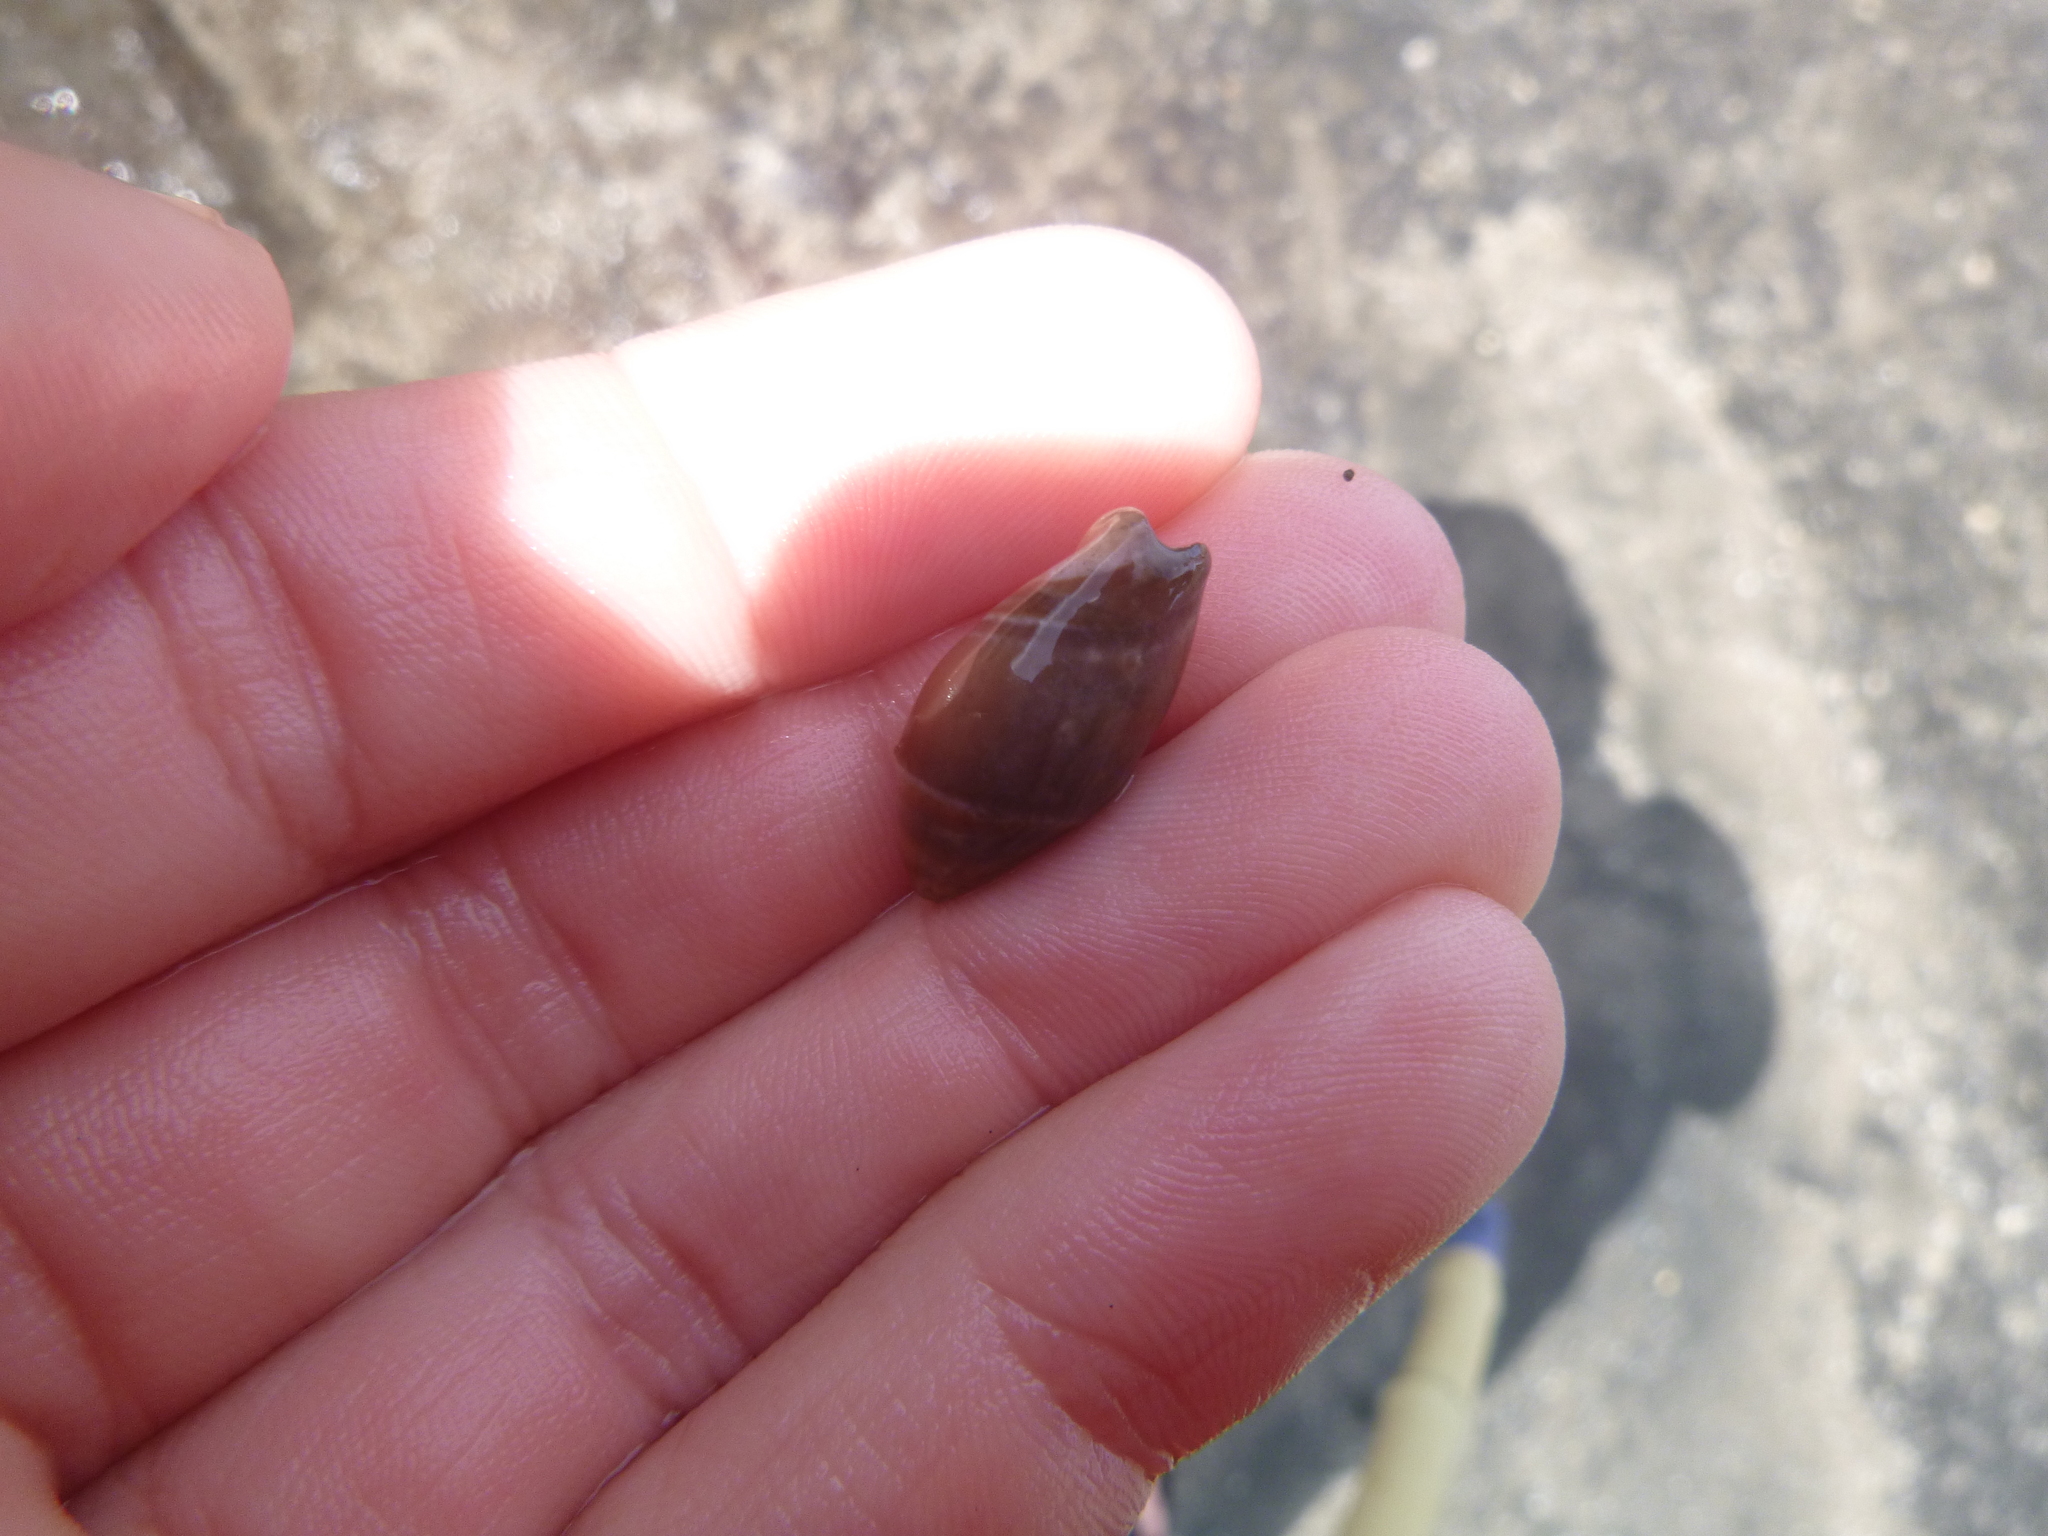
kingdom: Animalia
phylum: Mollusca
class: Gastropoda
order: Neogastropoda
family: Ancillariidae
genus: Amalda
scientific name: Amalda australis
